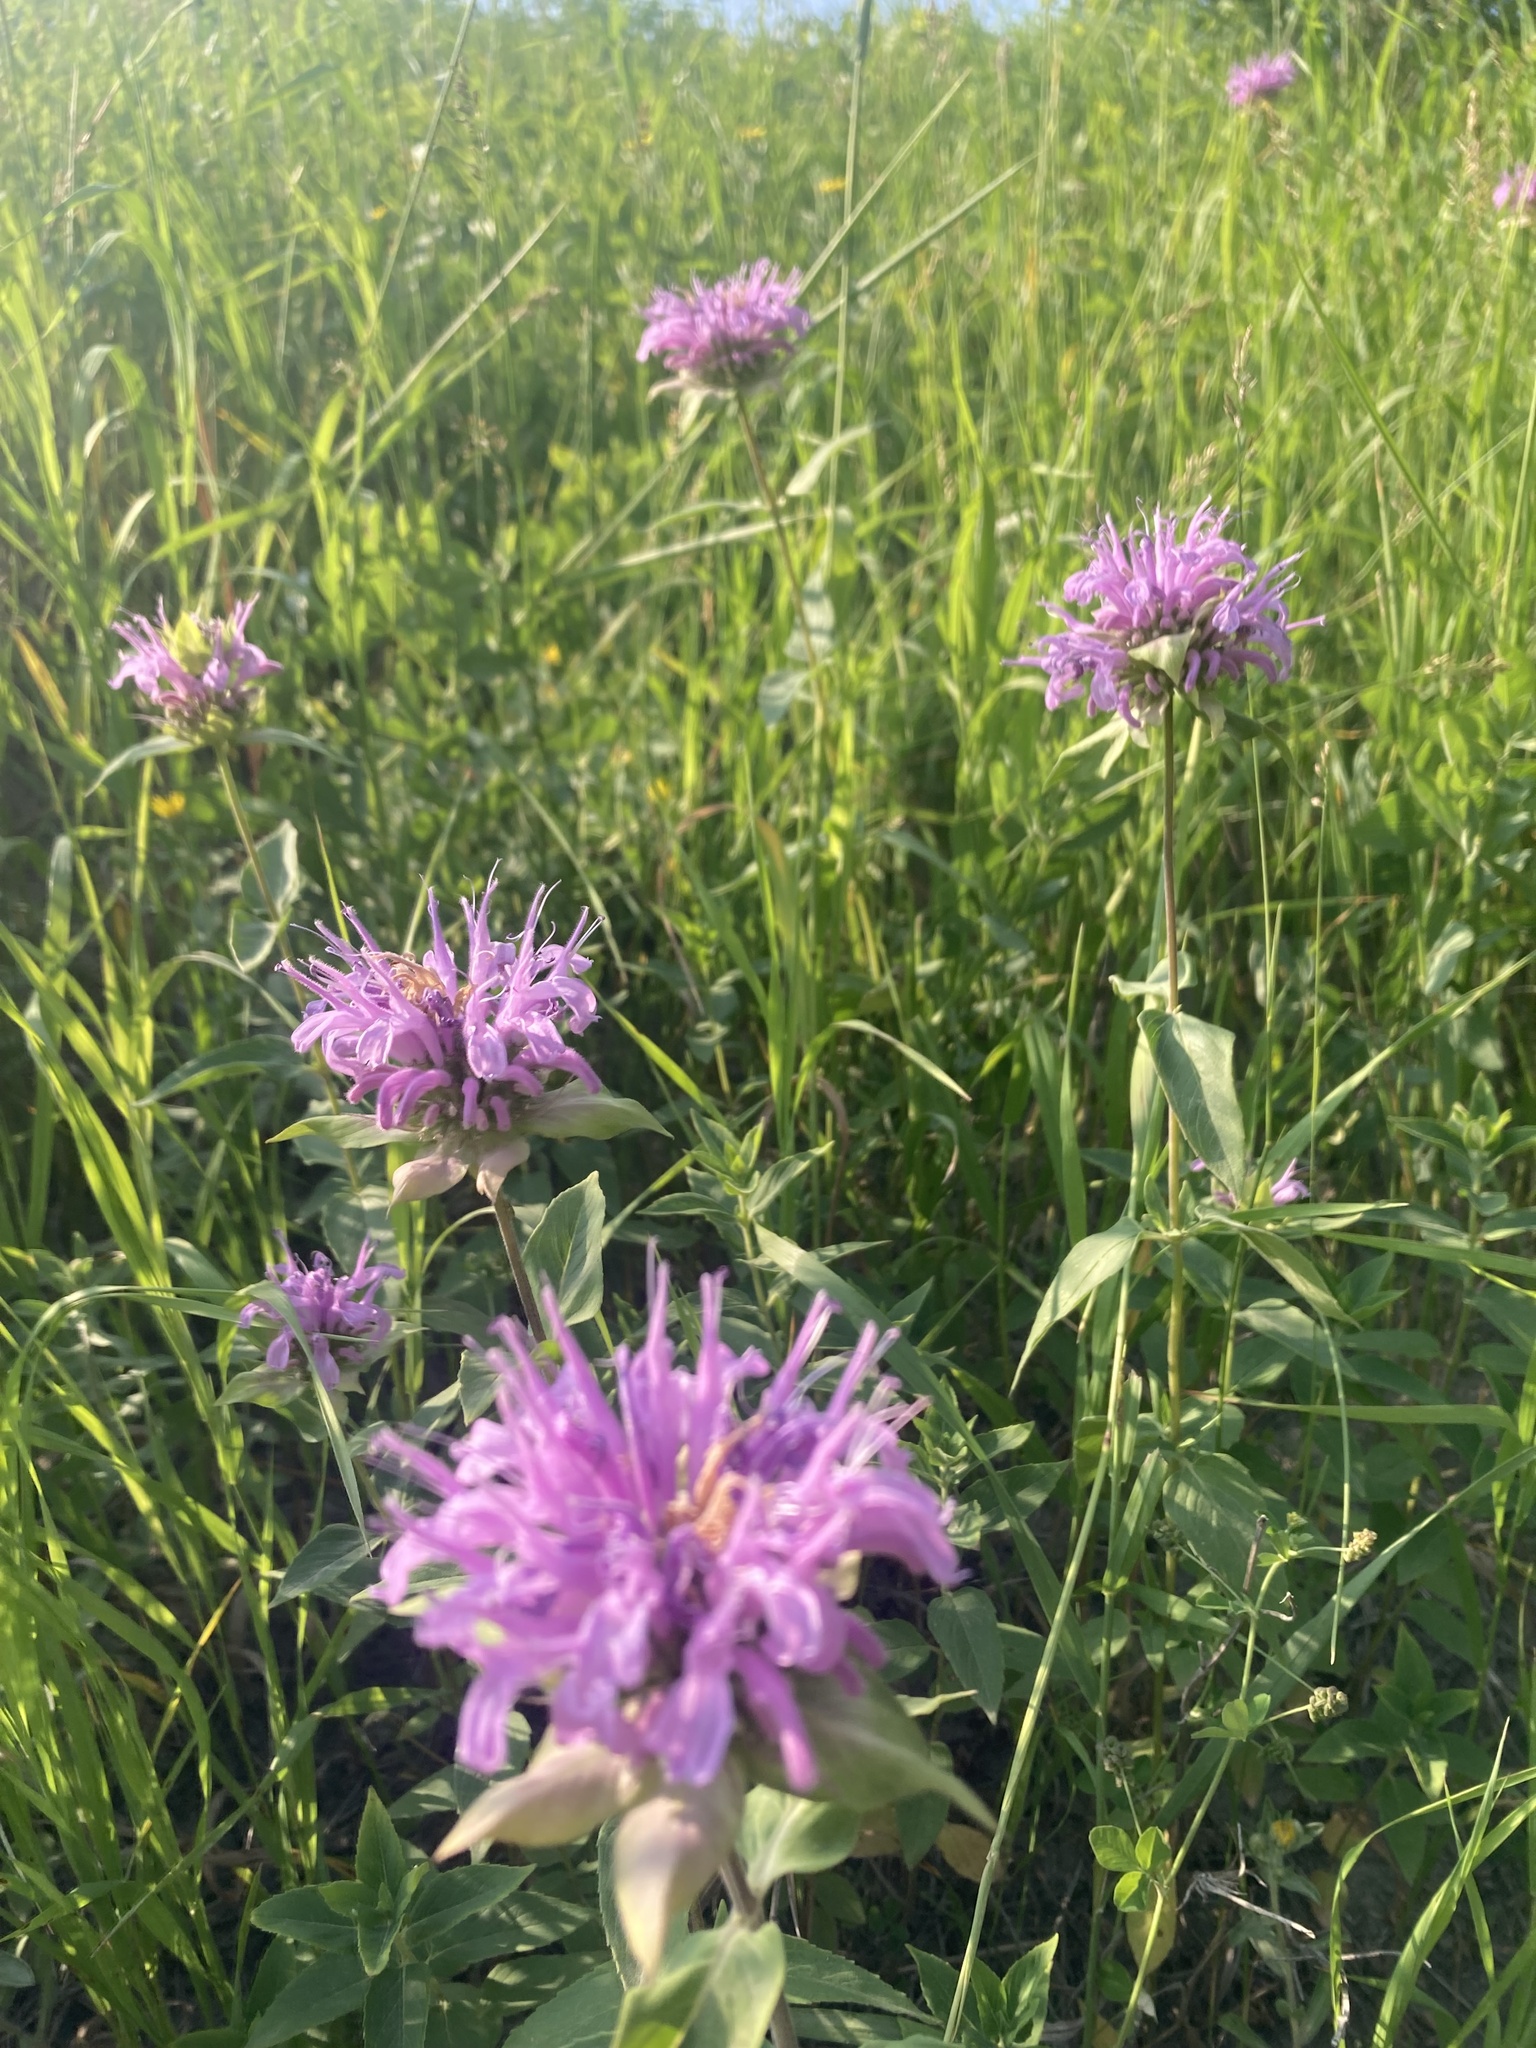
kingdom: Plantae
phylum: Tracheophyta
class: Magnoliopsida
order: Lamiales
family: Lamiaceae
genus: Monarda
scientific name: Monarda fistulosa
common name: Purple beebalm
